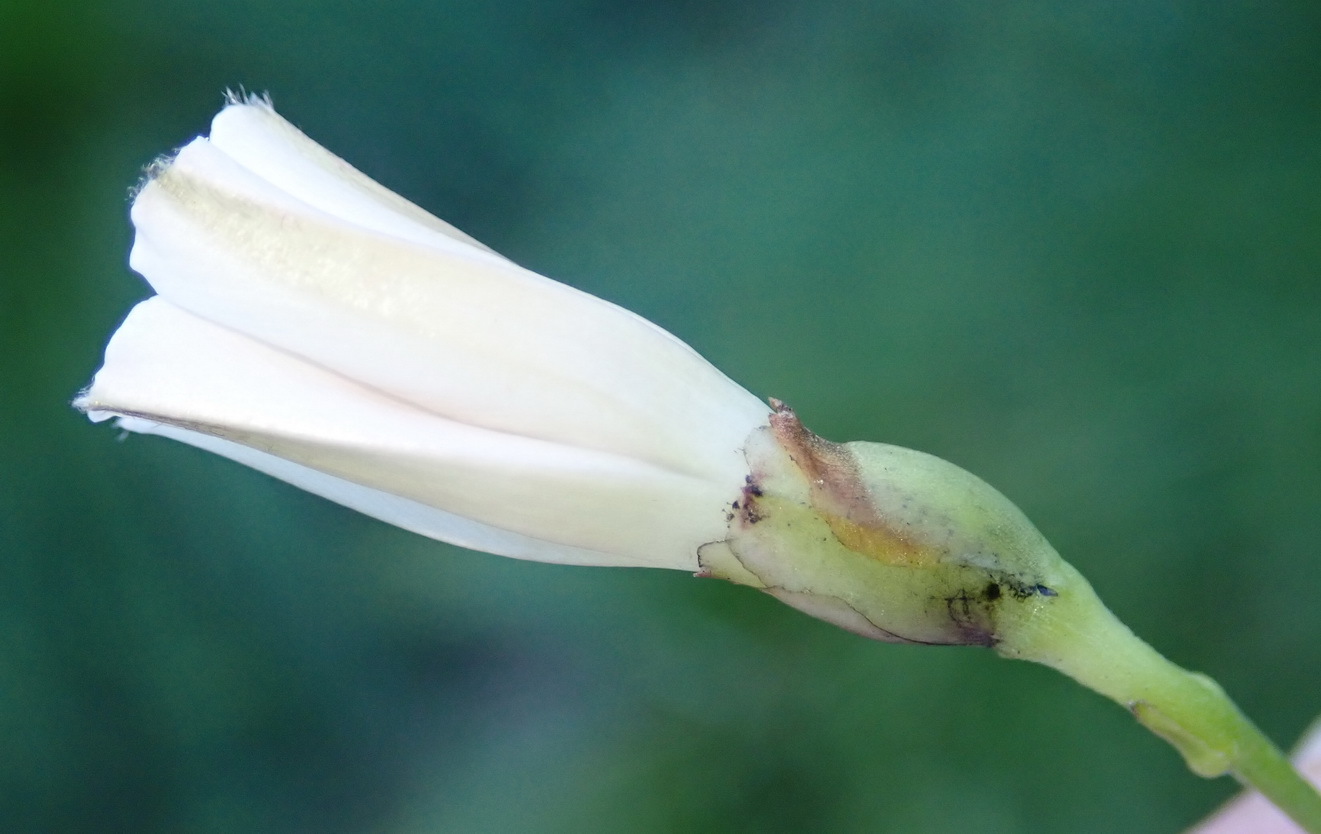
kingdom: Plantae
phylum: Tracheophyta
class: Magnoliopsida
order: Solanales
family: Convolvulaceae
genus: Convolvulus
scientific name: Convolvulus sagittatus
